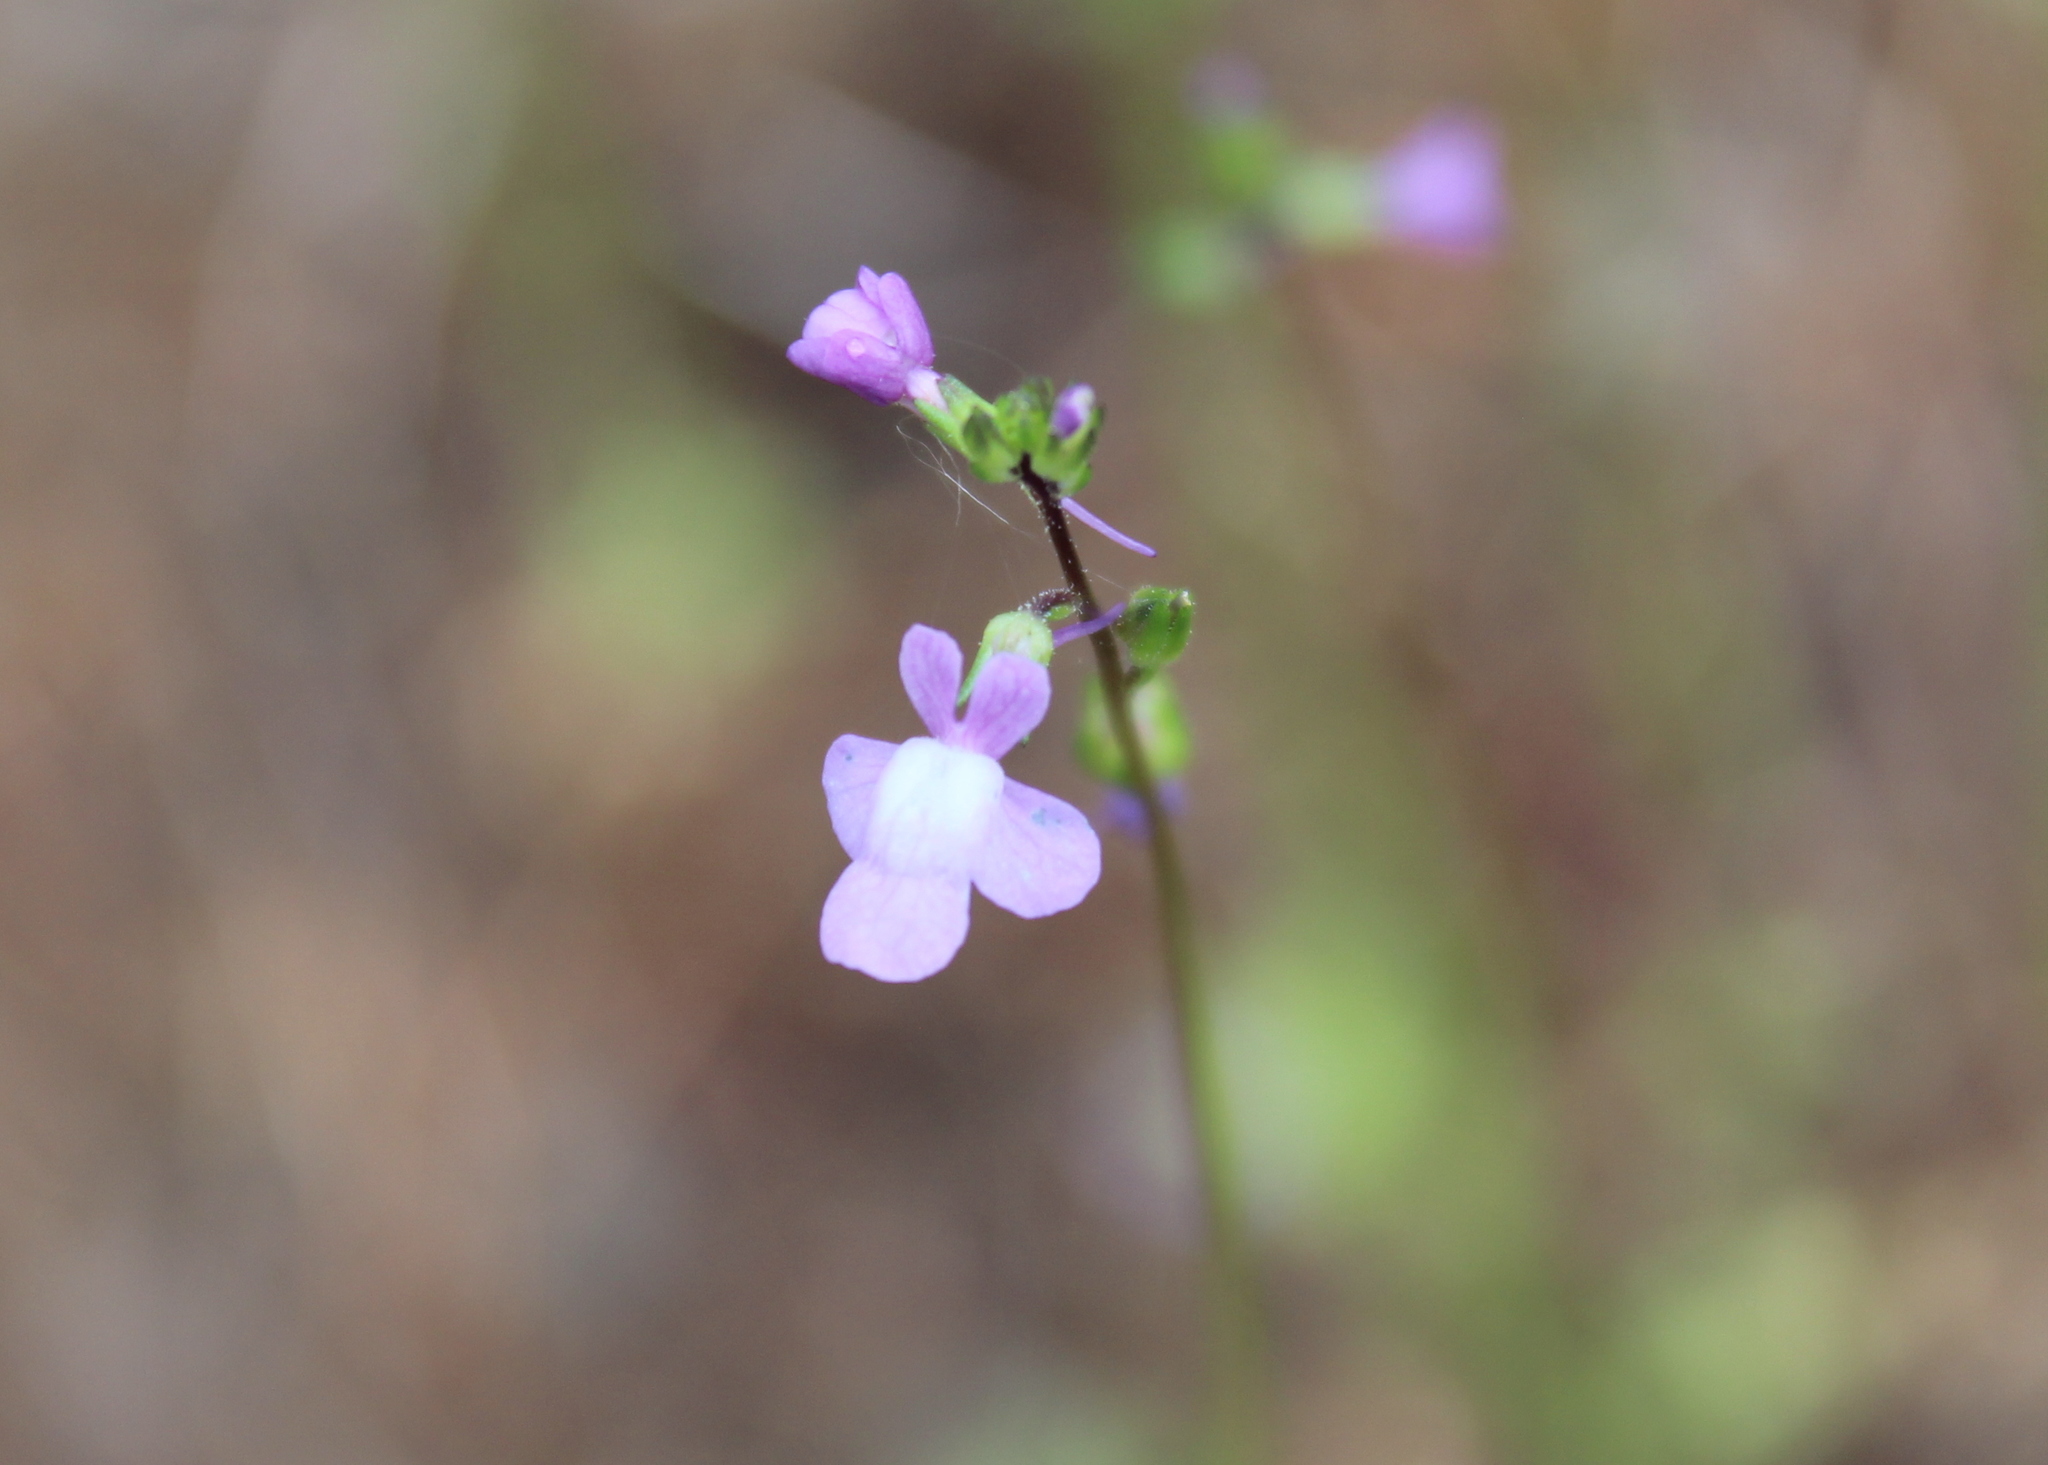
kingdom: Plantae
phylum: Tracheophyta
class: Magnoliopsida
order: Lamiales
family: Plantaginaceae
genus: Nuttallanthus
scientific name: Nuttallanthus canadensis
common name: Blue toadflax
